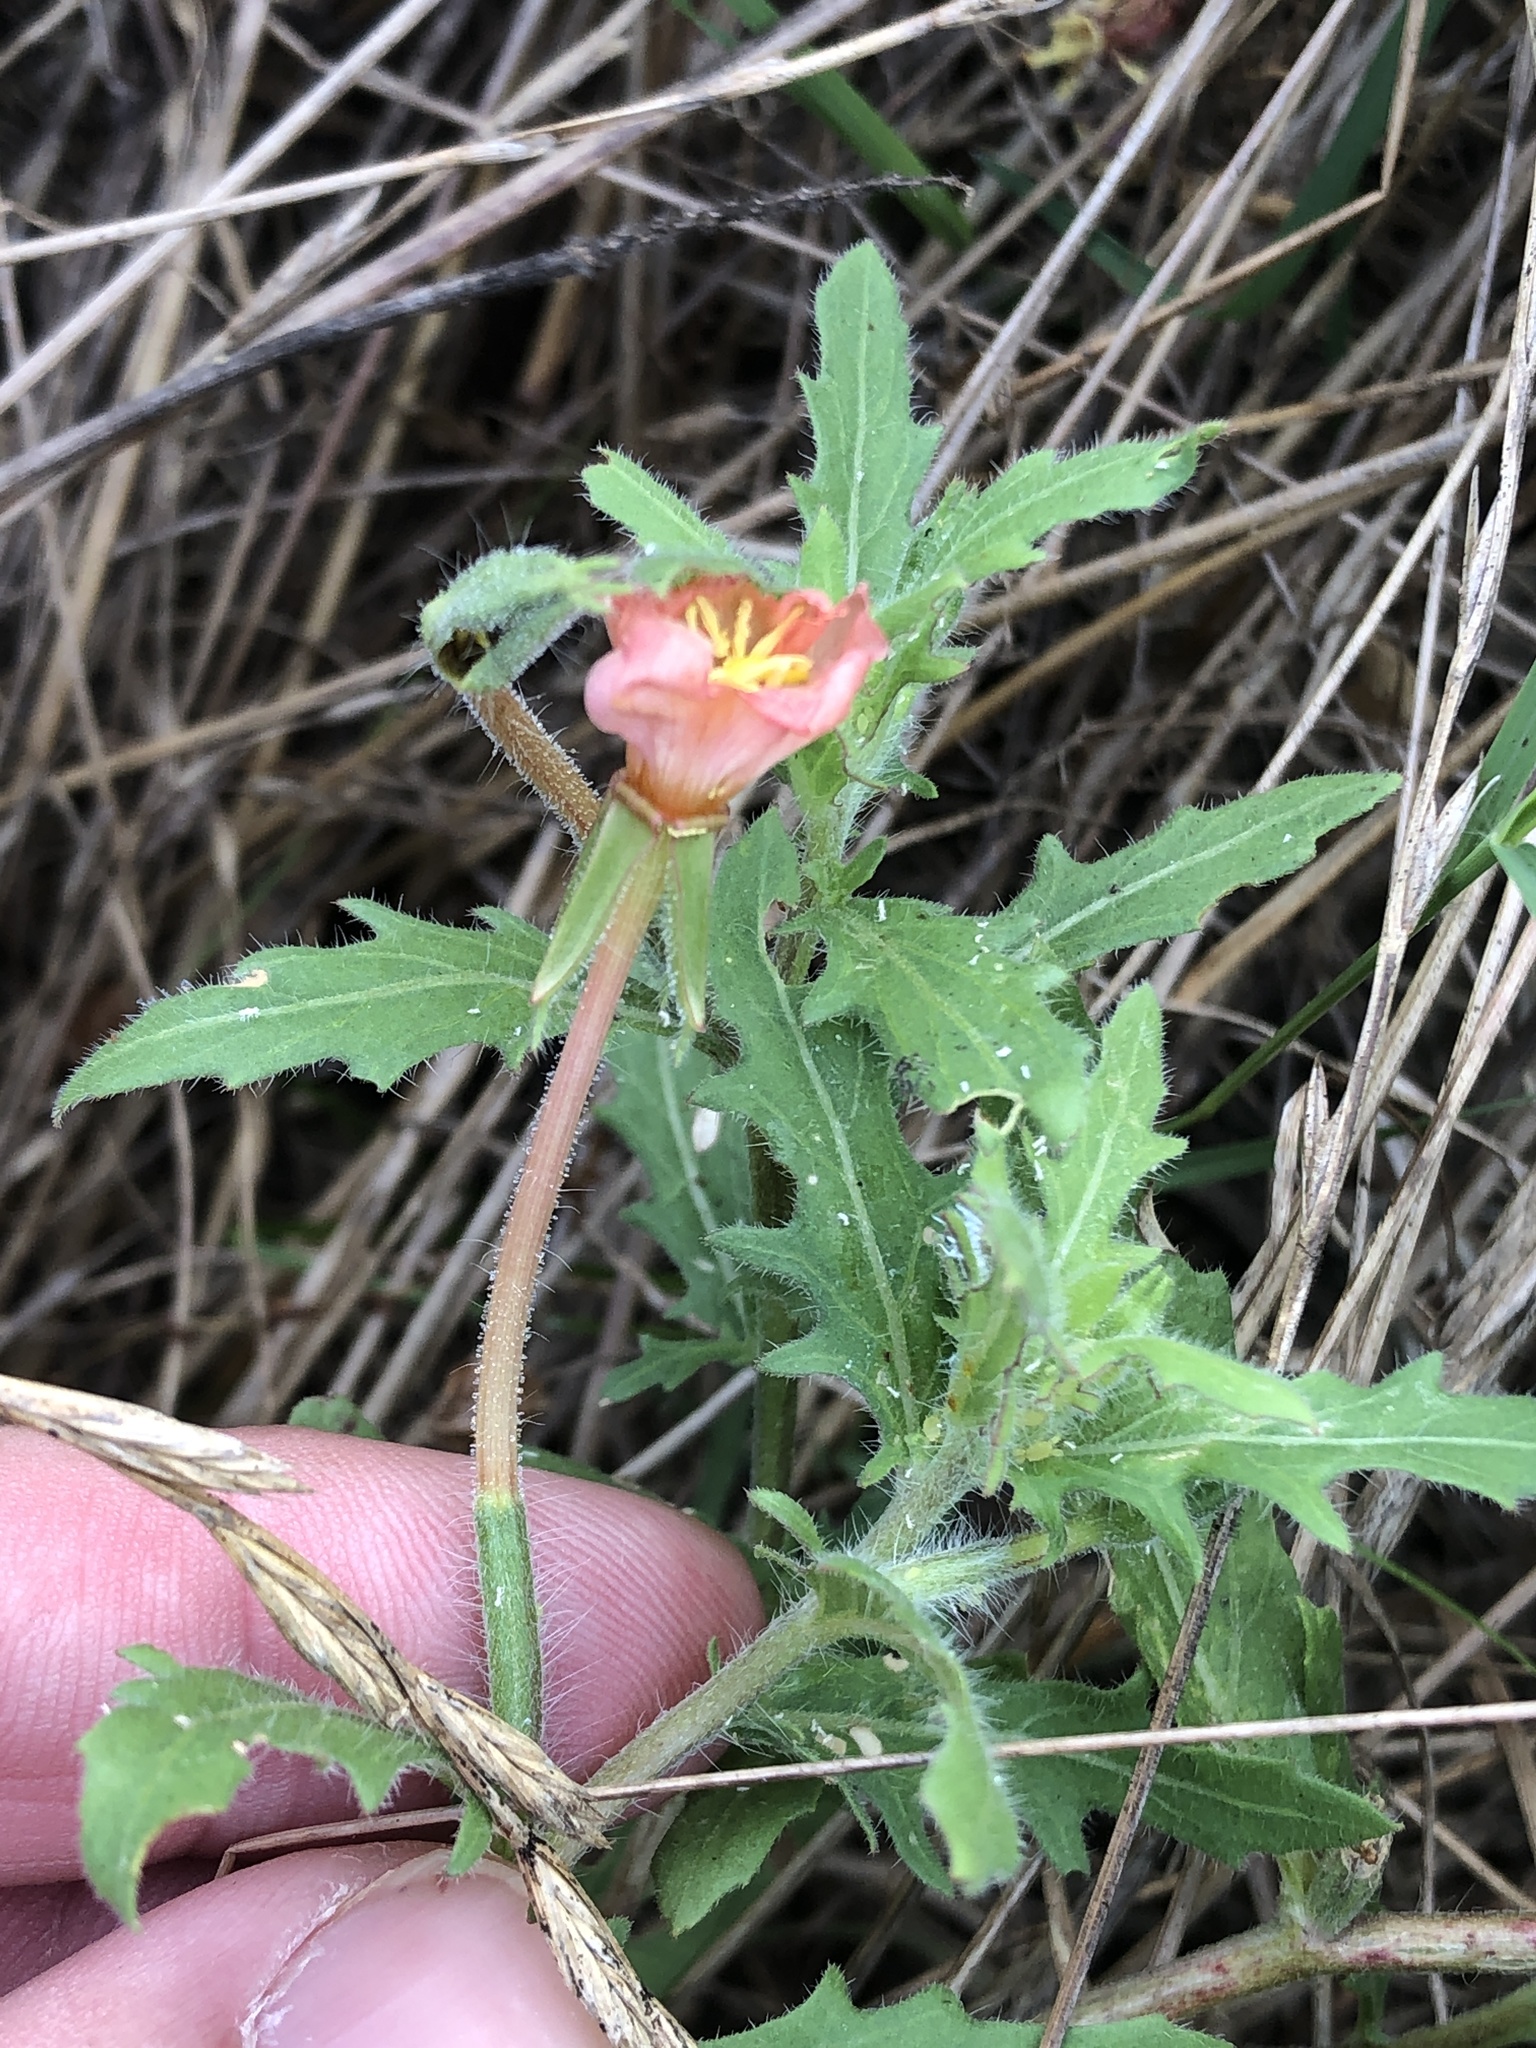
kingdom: Plantae
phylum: Tracheophyta
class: Magnoliopsida
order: Myrtales
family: Onagraceae
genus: Oenothera
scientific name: Oenothera laciniata
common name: Cut-leaved evening-primrose
